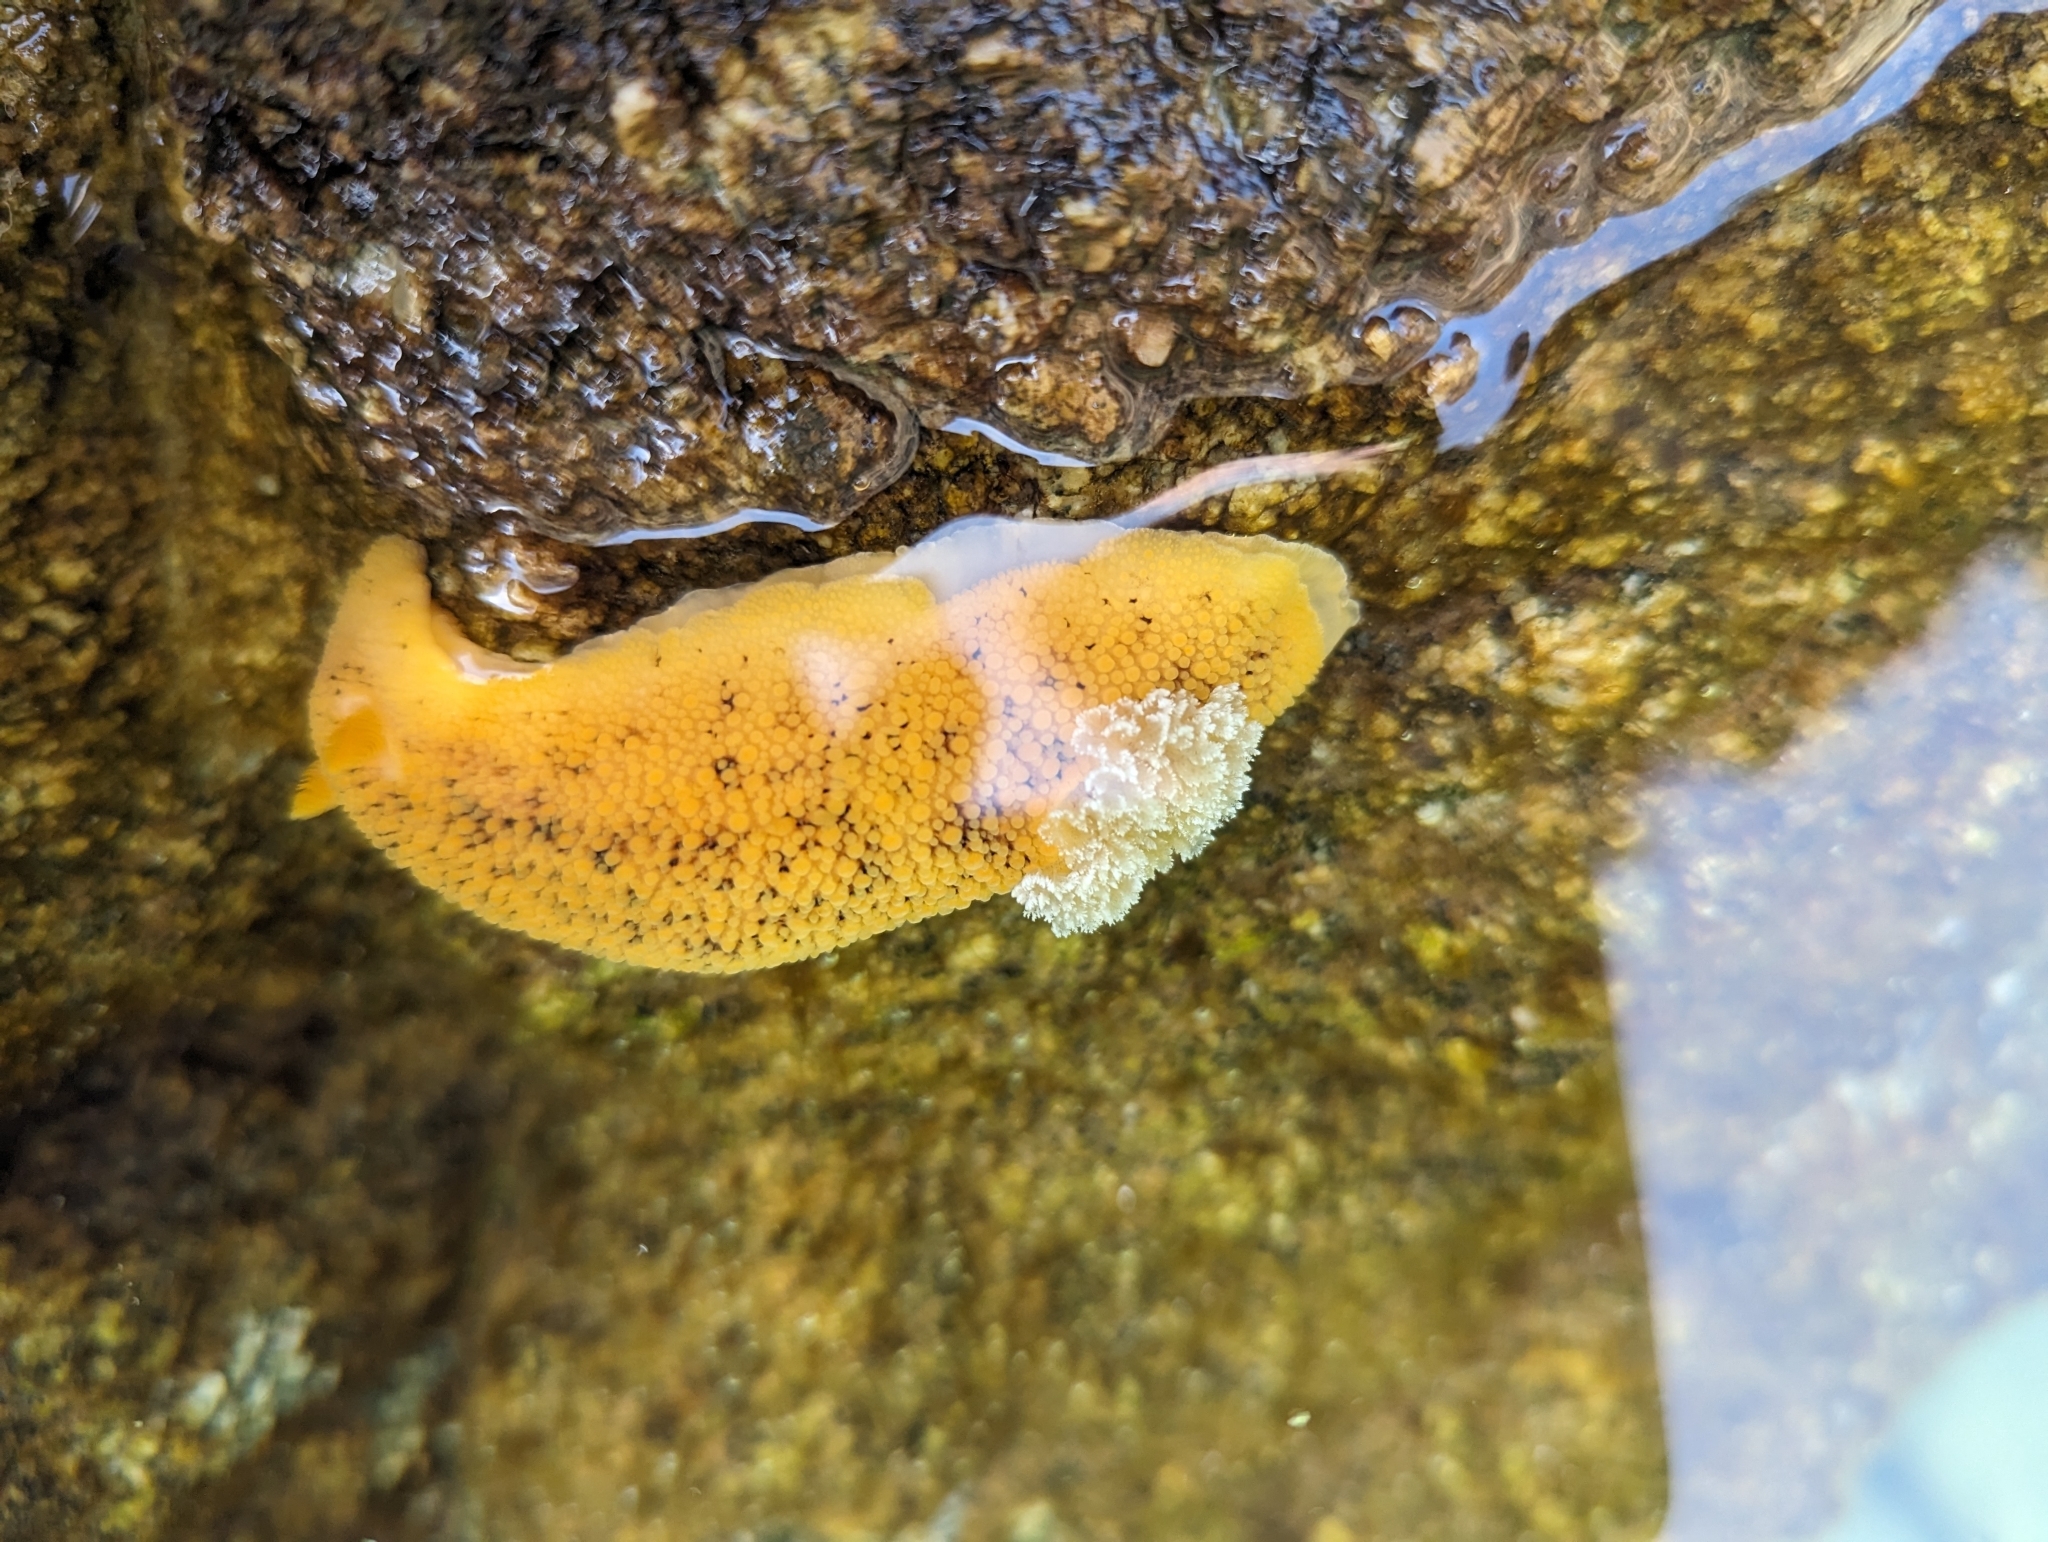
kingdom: Animalia
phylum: Mollusca
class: Gastropoda
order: Nudibranchia
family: Discodorididae
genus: Peltodoris
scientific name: Peltodoris nobilis
